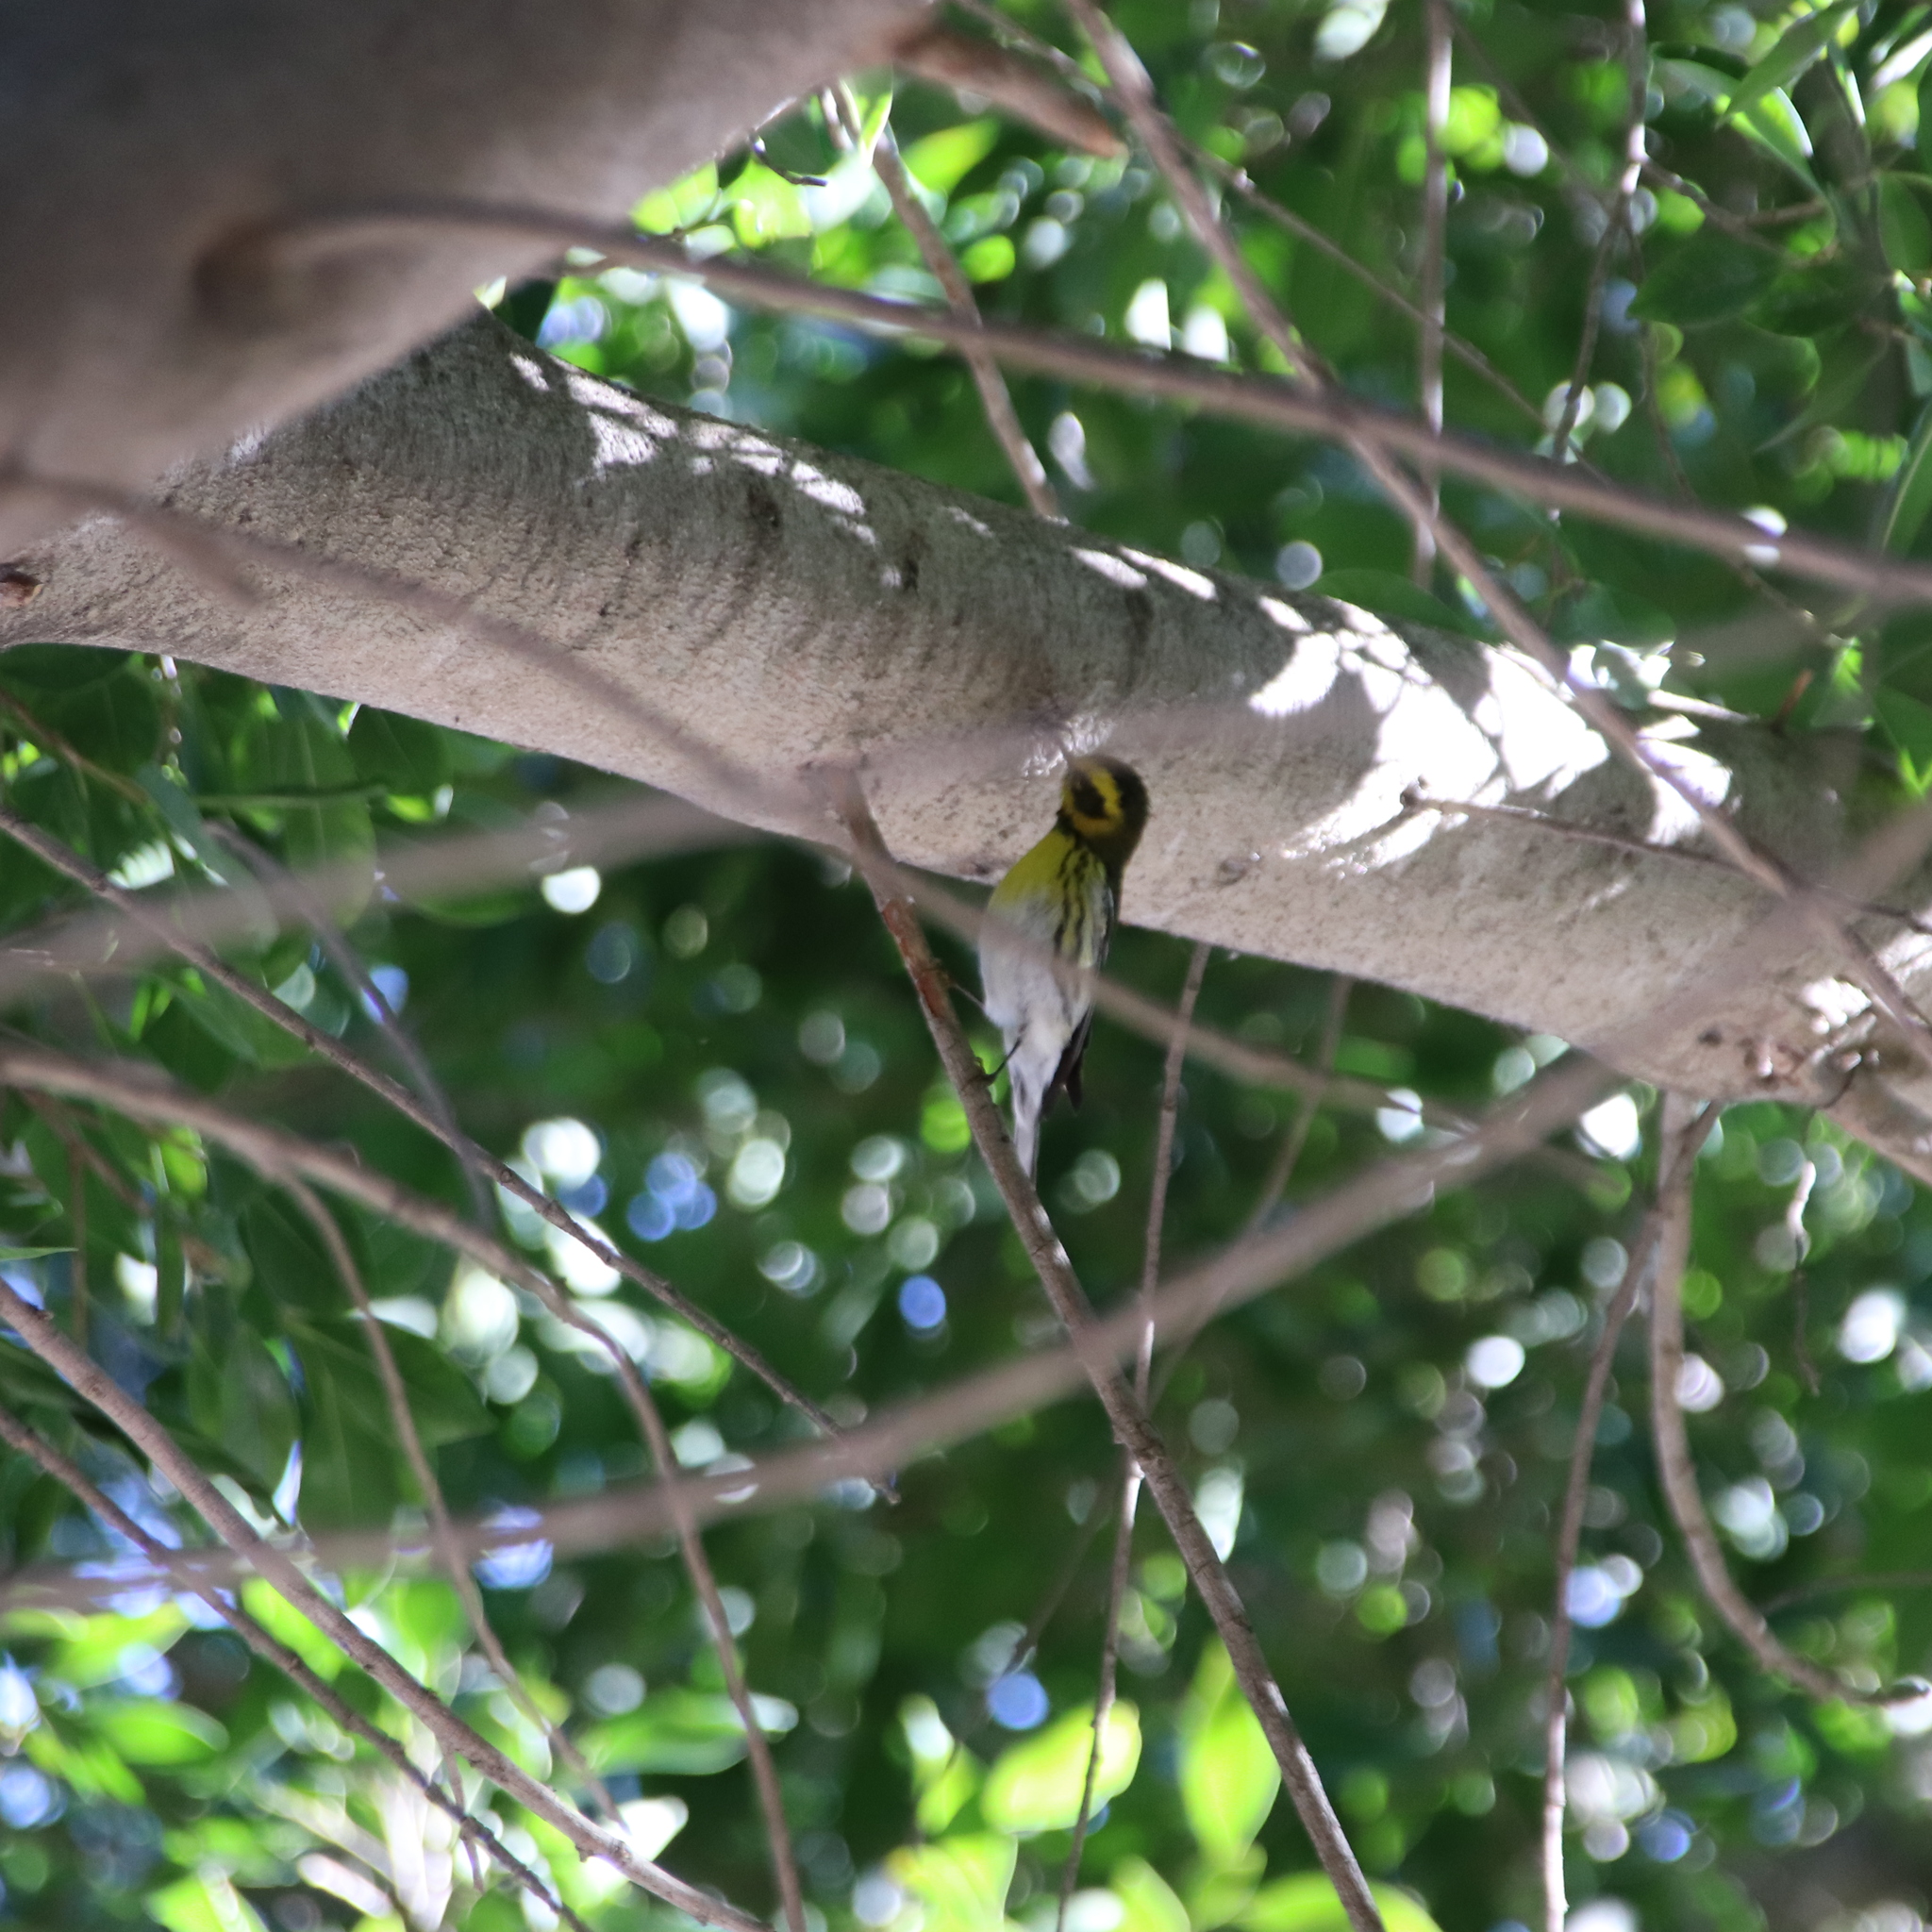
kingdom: Animalia
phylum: Chordata
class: Aves
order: Passeriformes
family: Parulidae
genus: Setophaga
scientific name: Setophaga townsendi
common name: Townsend's warbler
